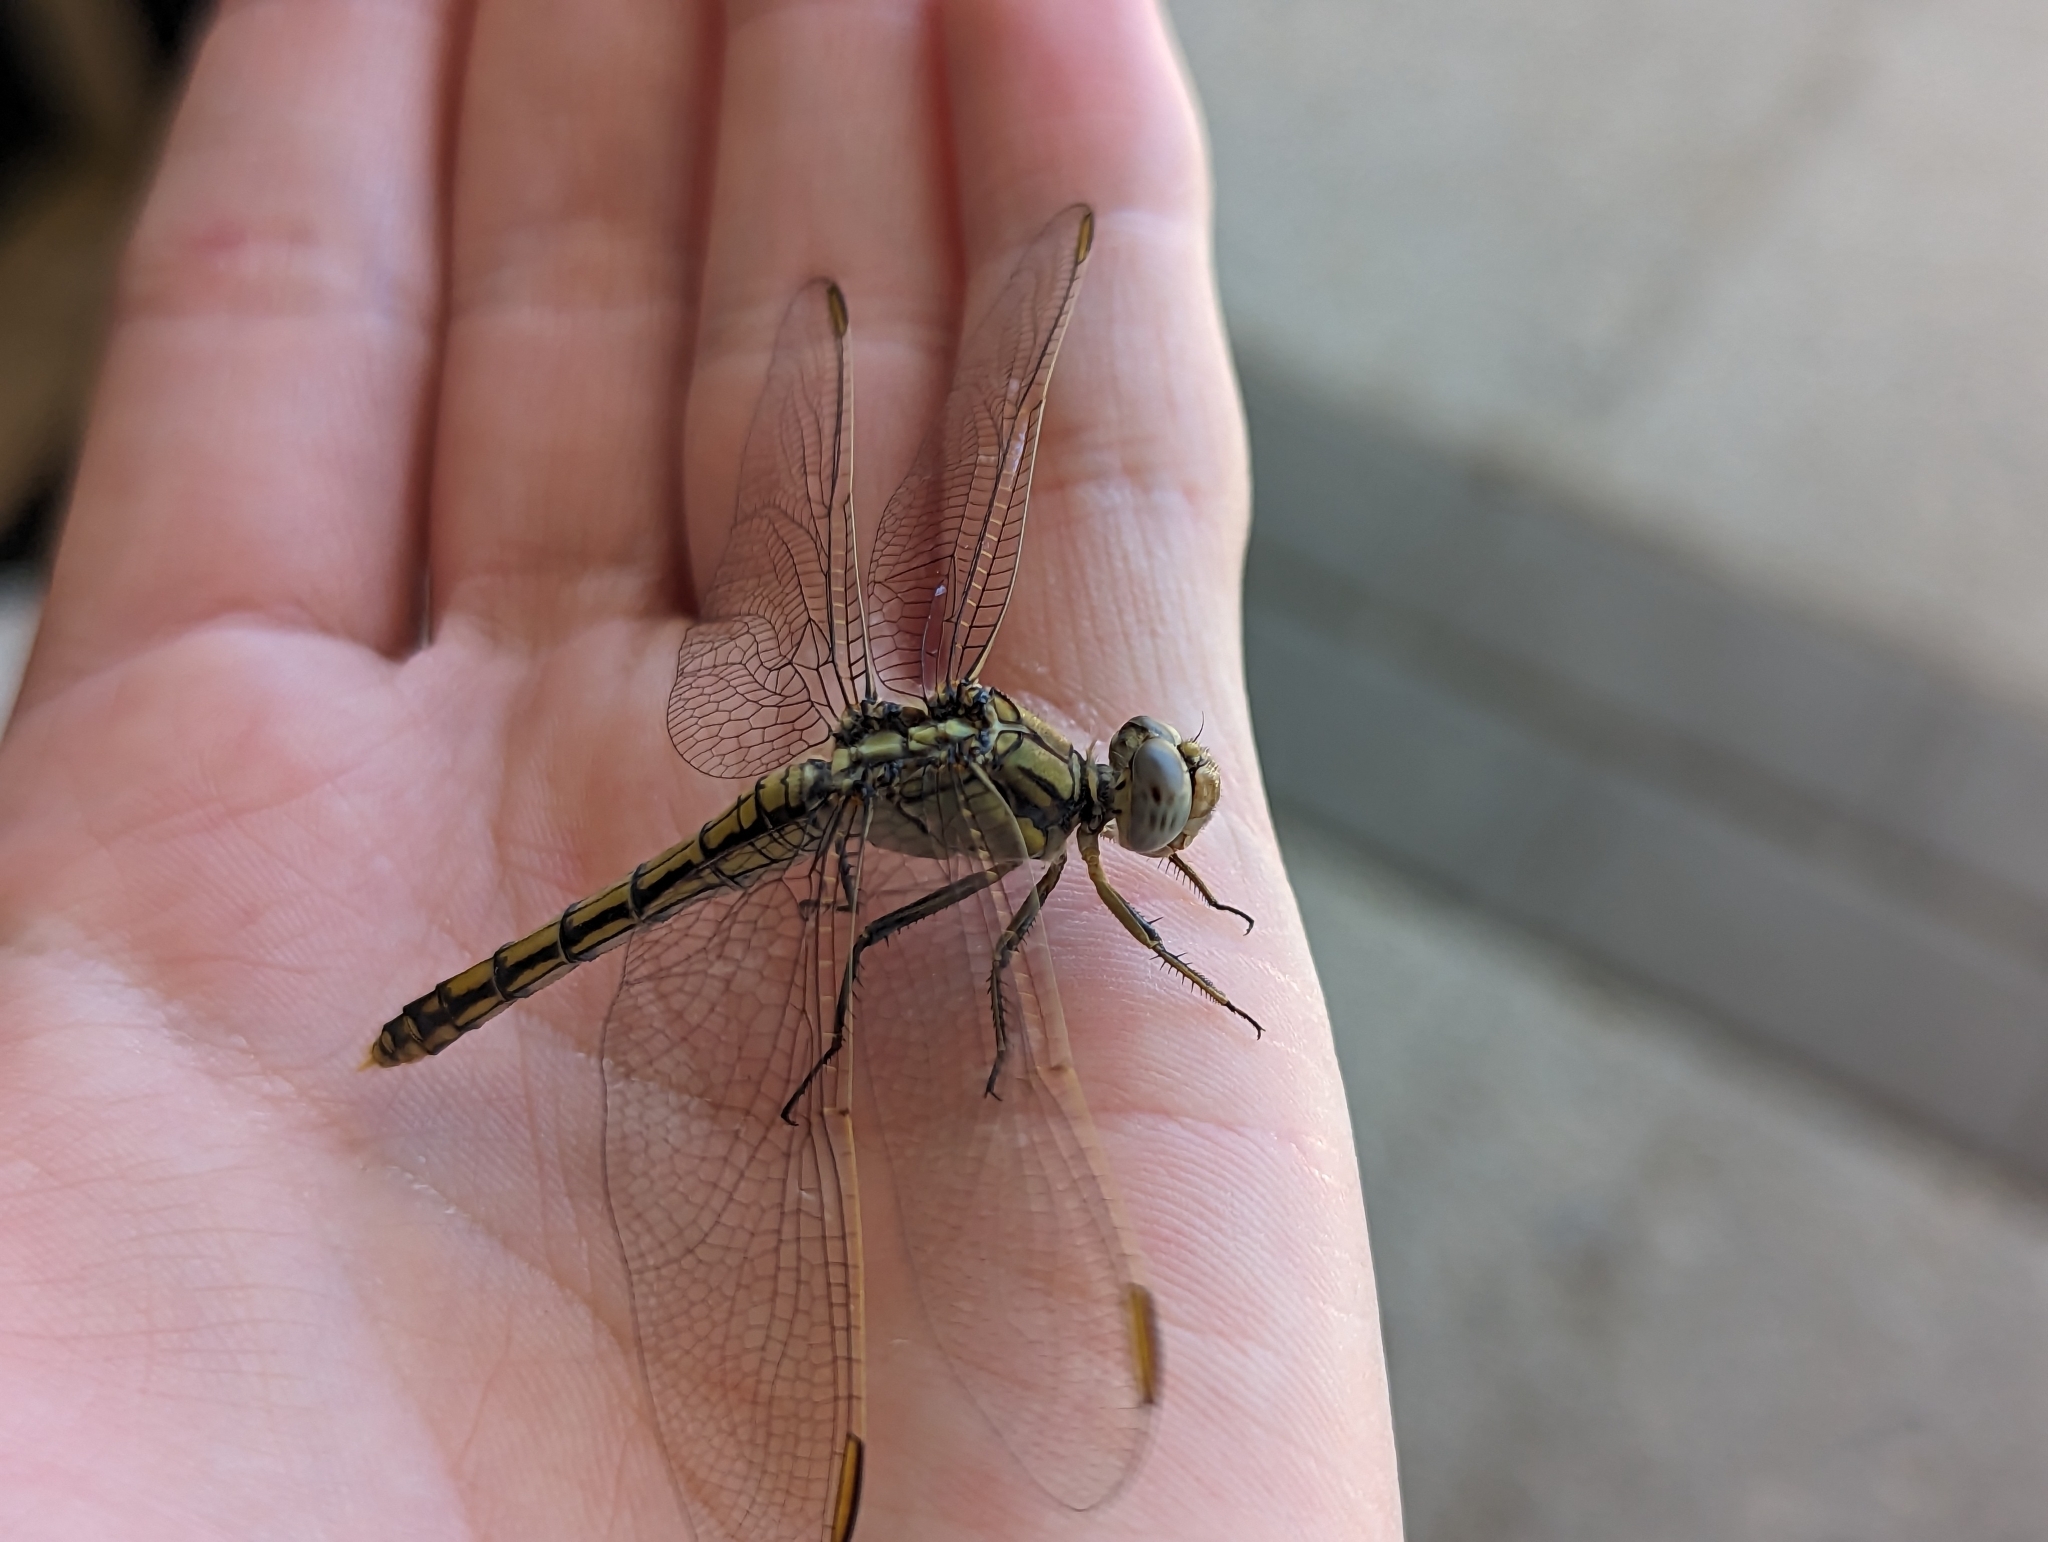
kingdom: Animalia
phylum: Arthropoda
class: Insecta
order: Odonata
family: Libellulidae
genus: Orthetrum
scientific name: Orthetrum caledonicum
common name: Blue skimmer
